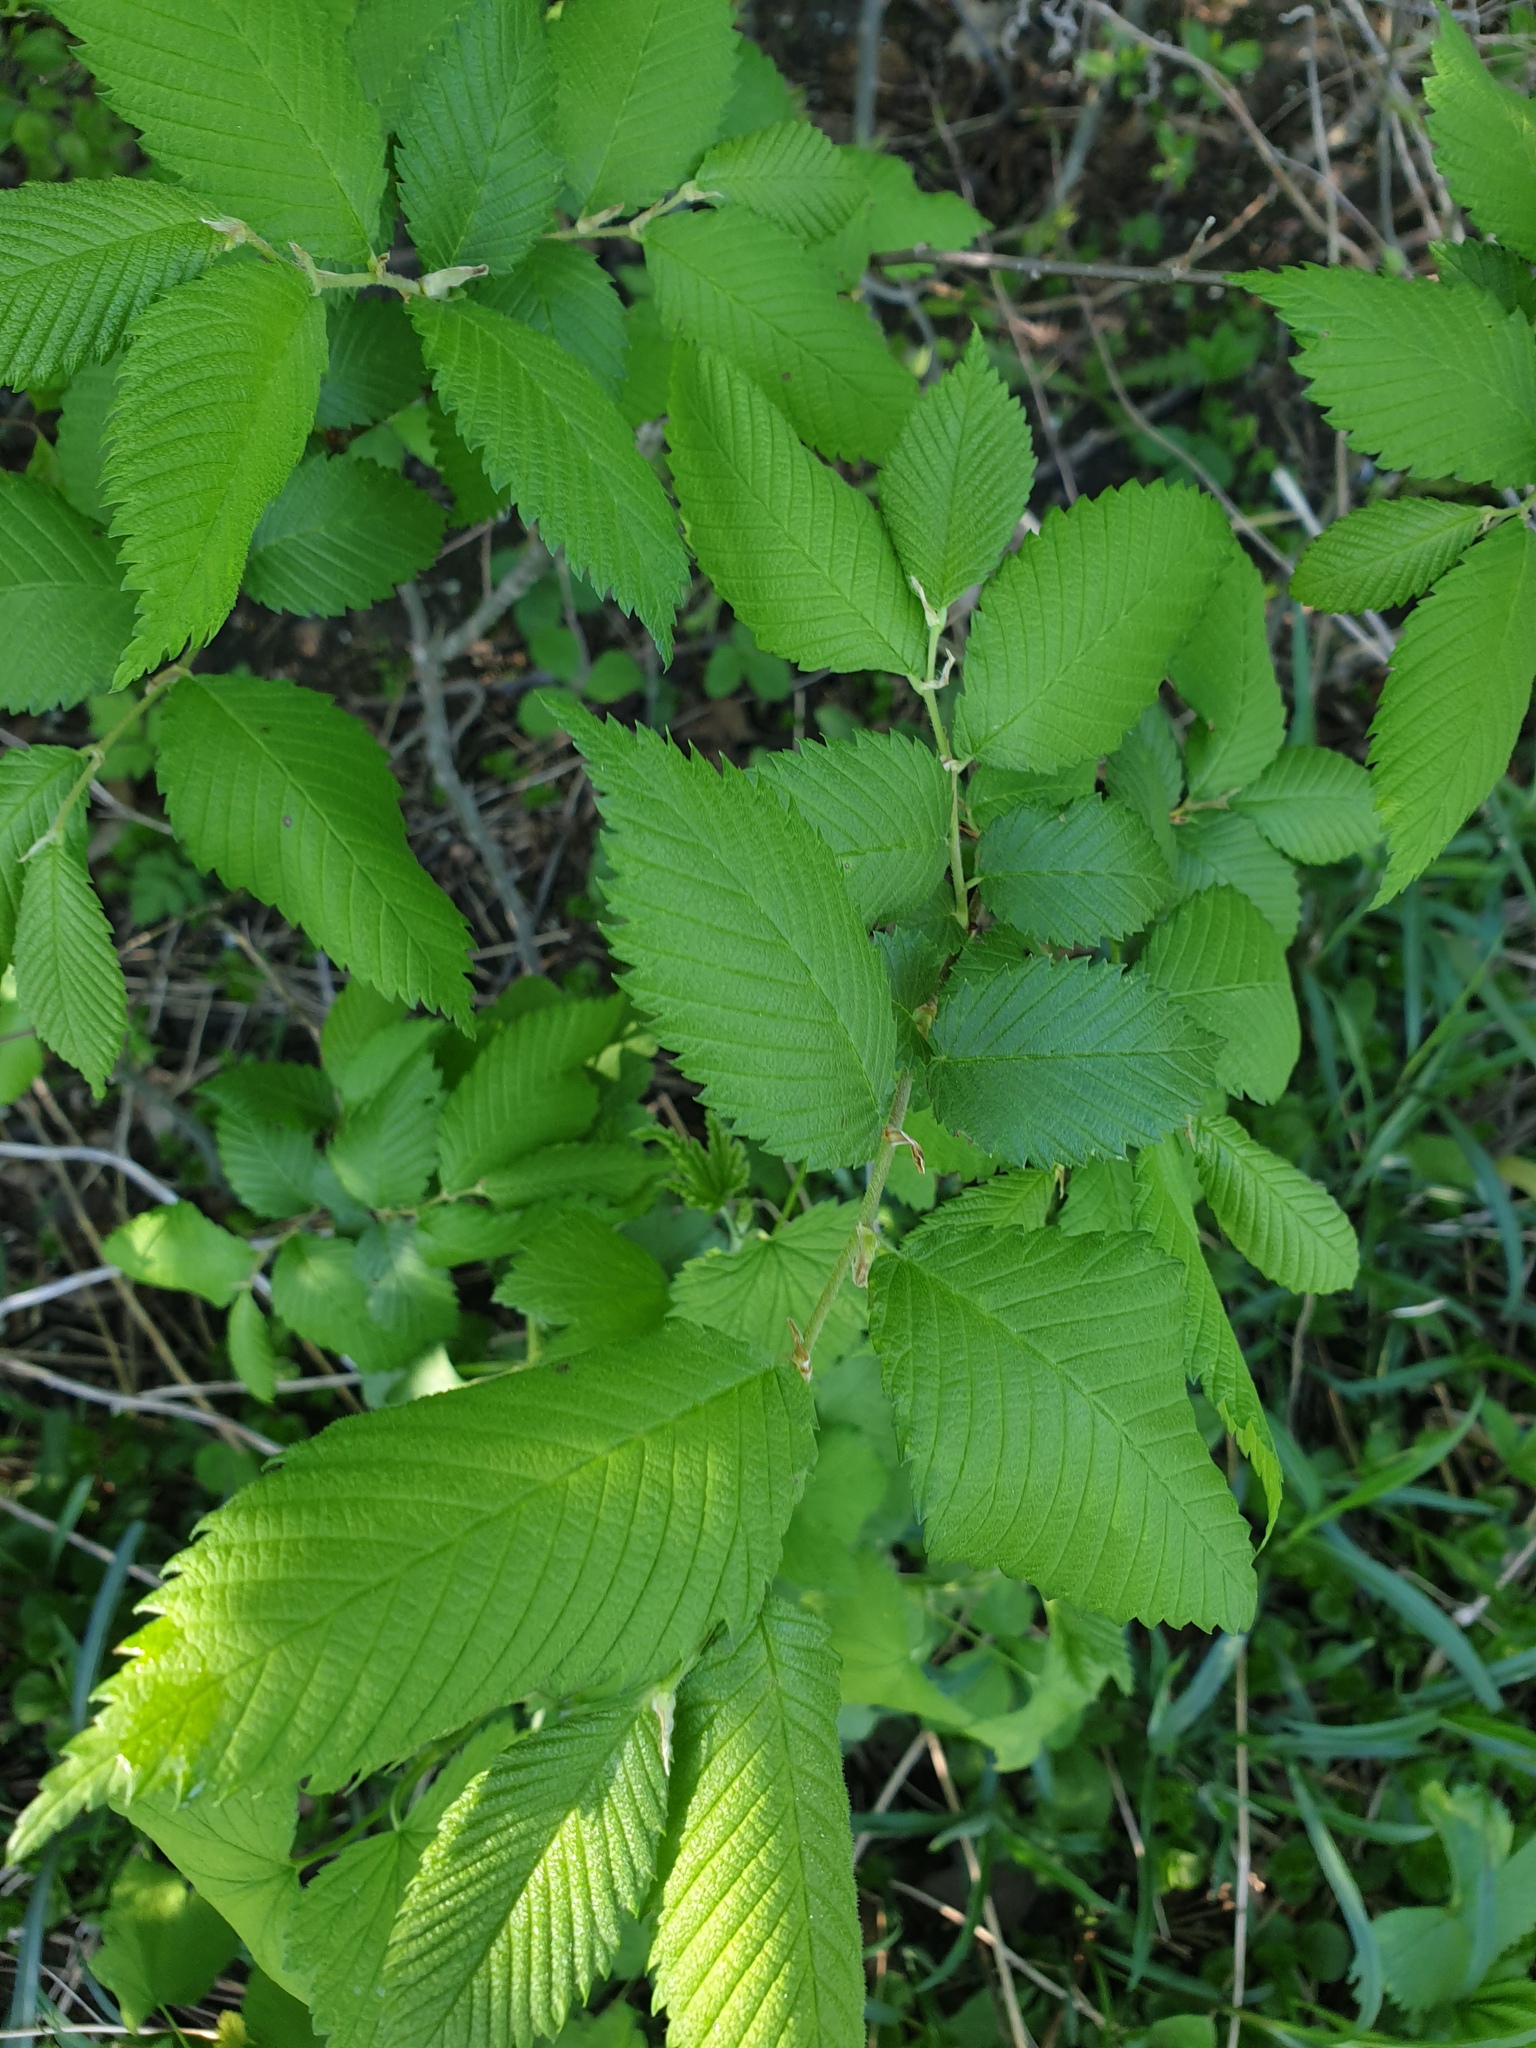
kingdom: Plantae
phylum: Tracheophyta
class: Magnoliopsida
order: Rosales
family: Ulmaceae
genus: Ulmus
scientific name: Ulmus americana
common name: American elm
